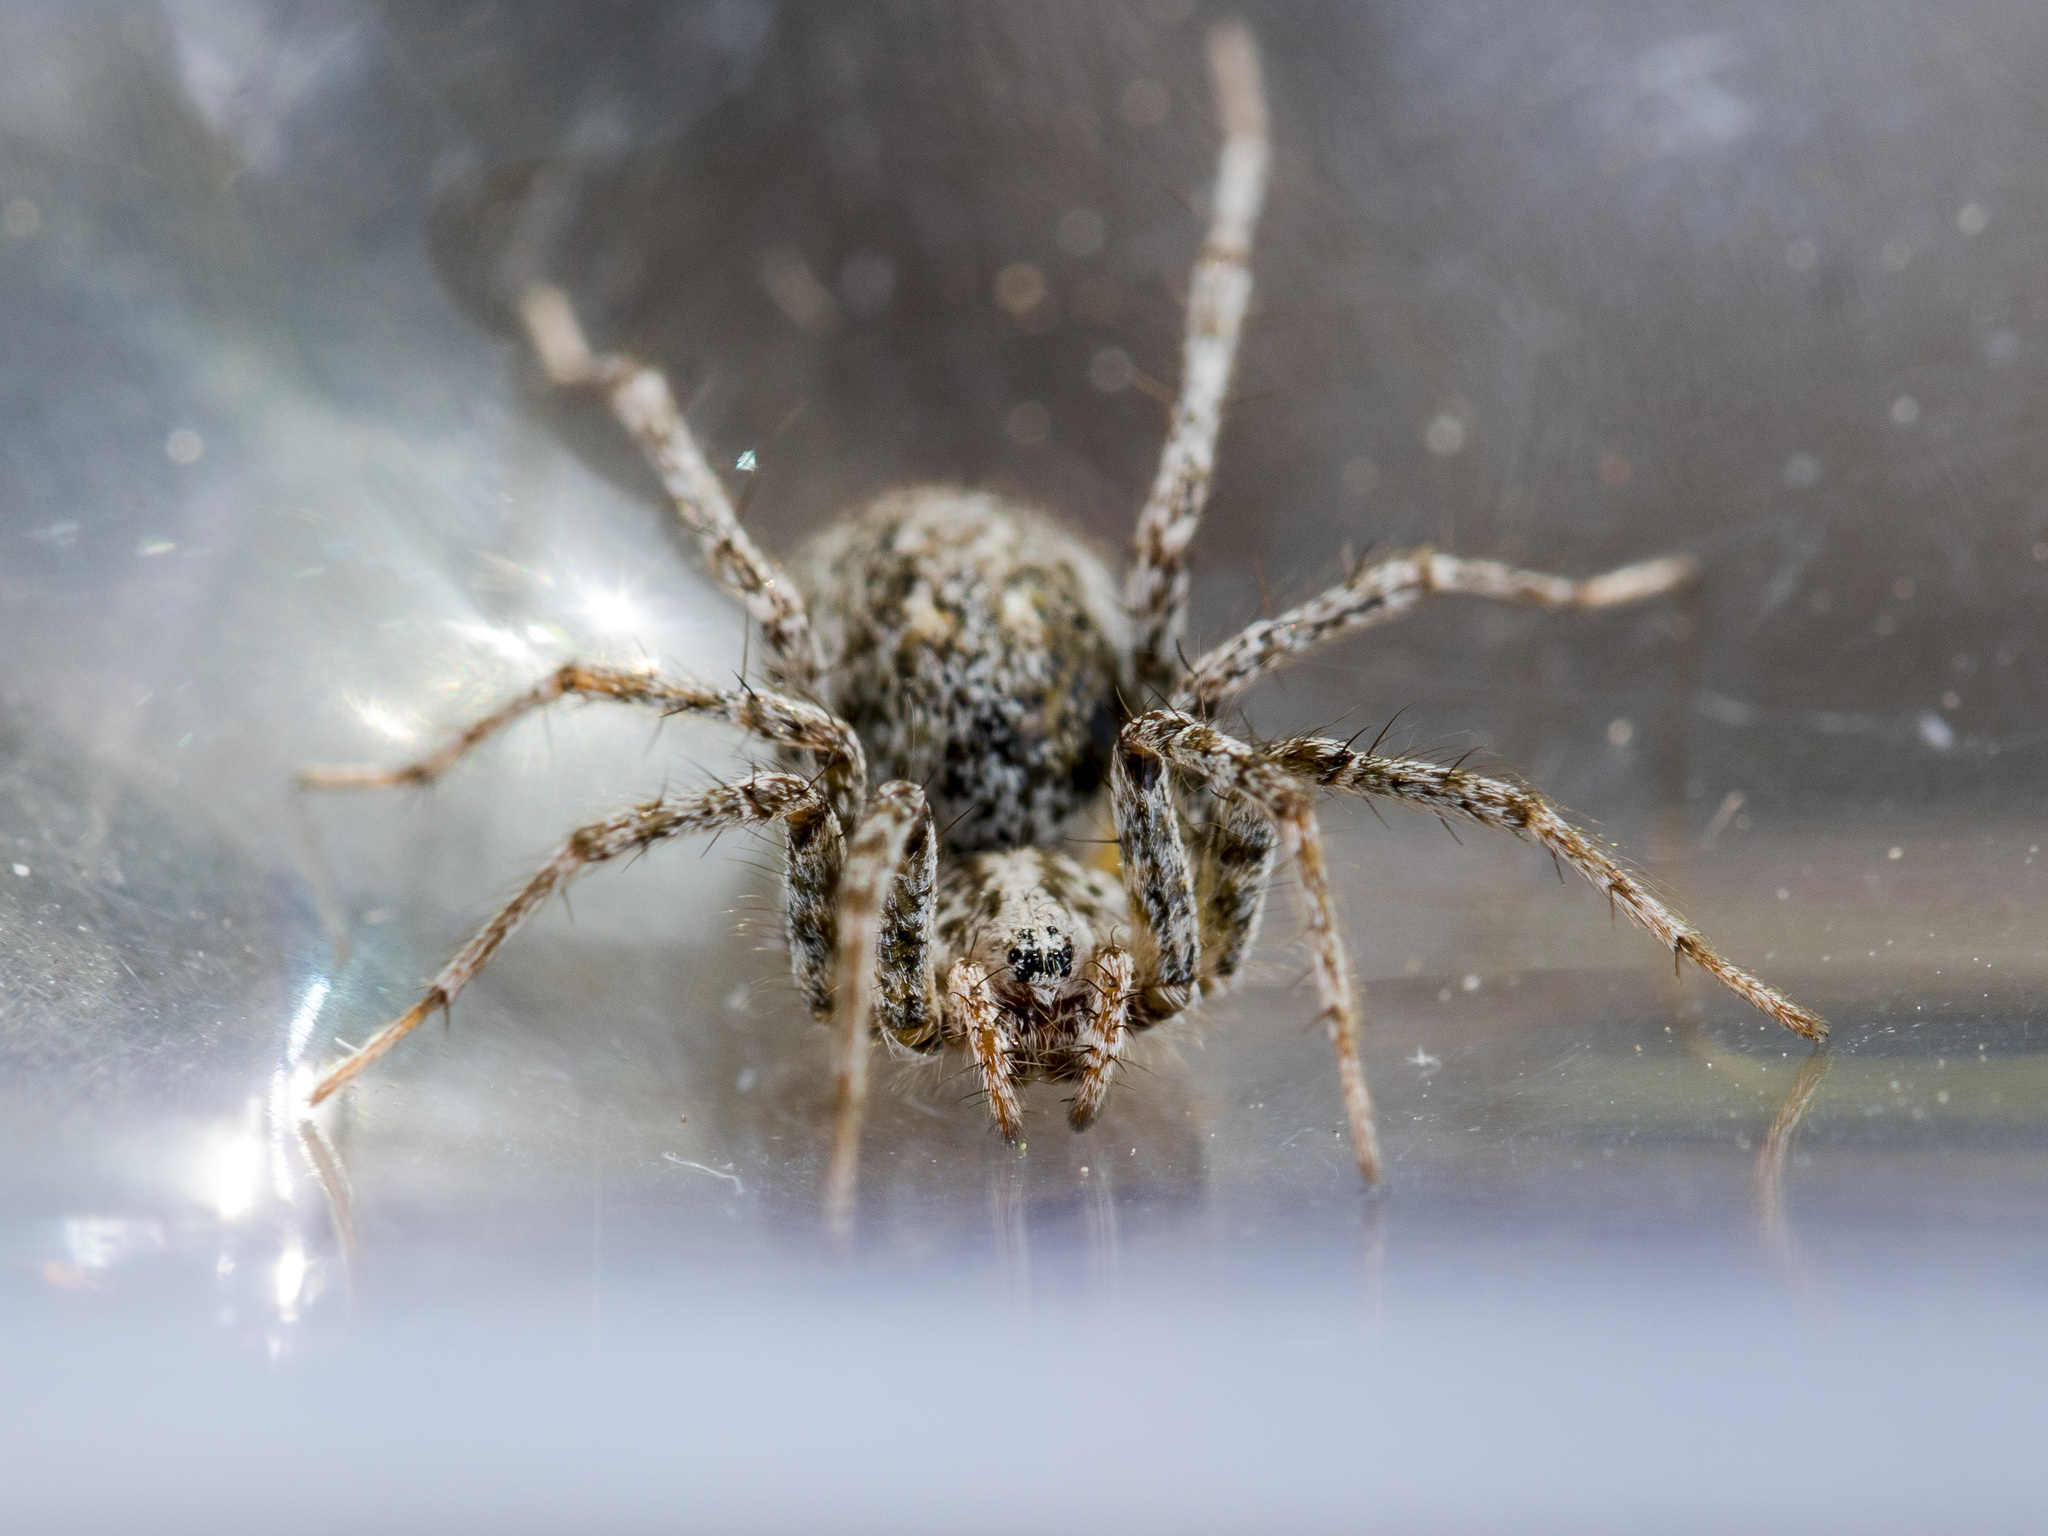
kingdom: Animalia
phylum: Arthropoda
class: Arachnida
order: Araneae
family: Agelenidae
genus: Benoitia
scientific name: Benoitia tadzhika
